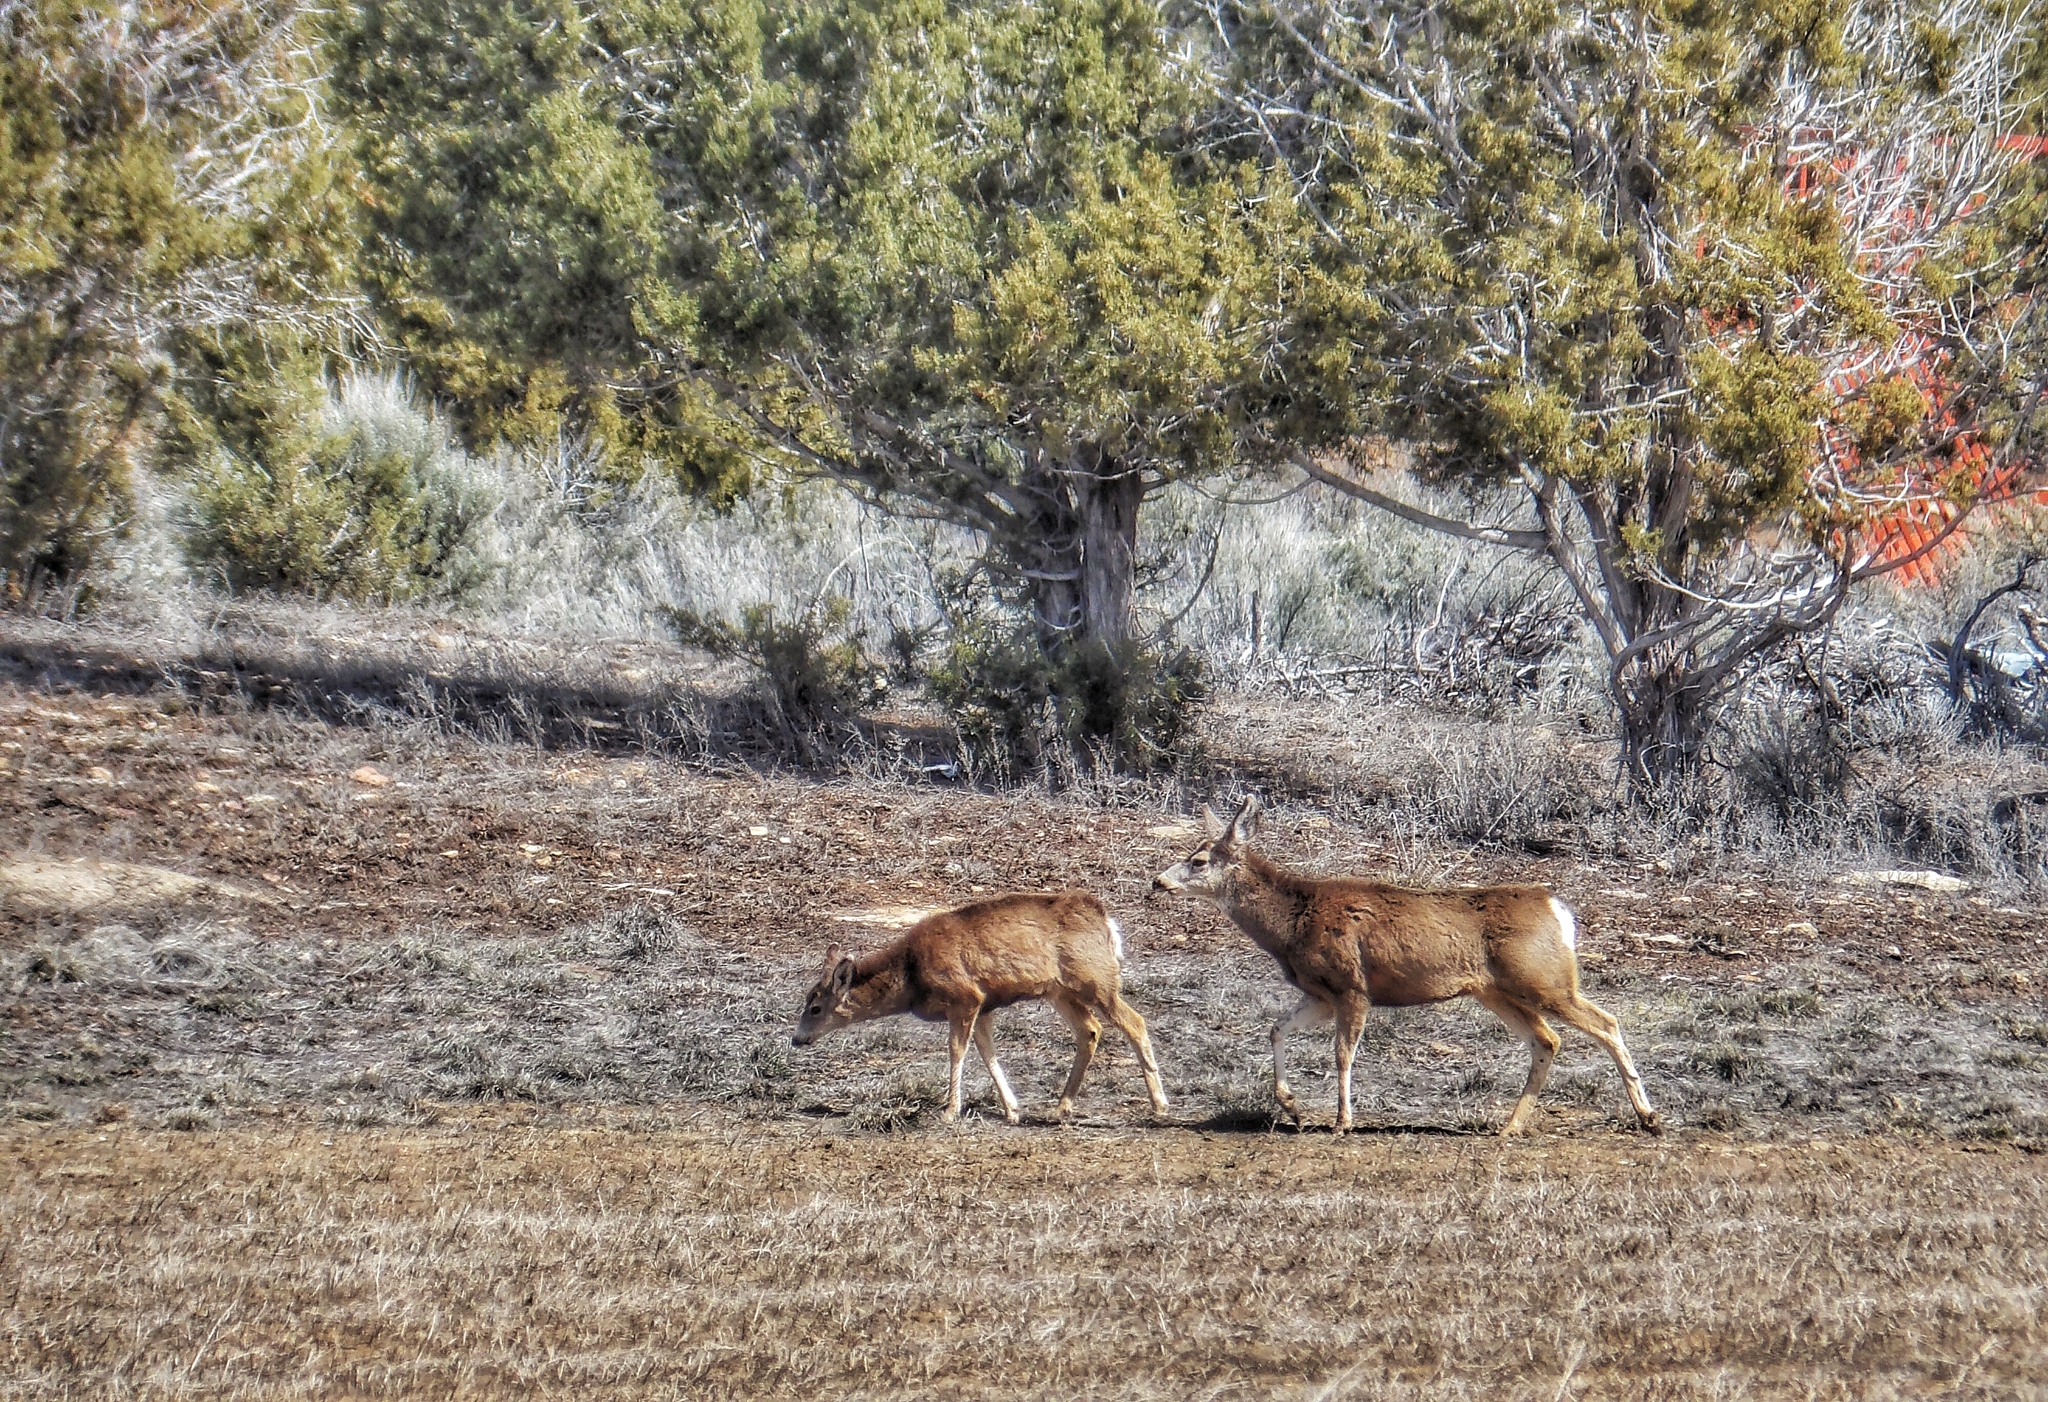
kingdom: Animalia
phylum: Chordata
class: Mammalia
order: Artiodactyla
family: Cervidae
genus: Odocoileus
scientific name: Odocoileus hemionus
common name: Mule deer
